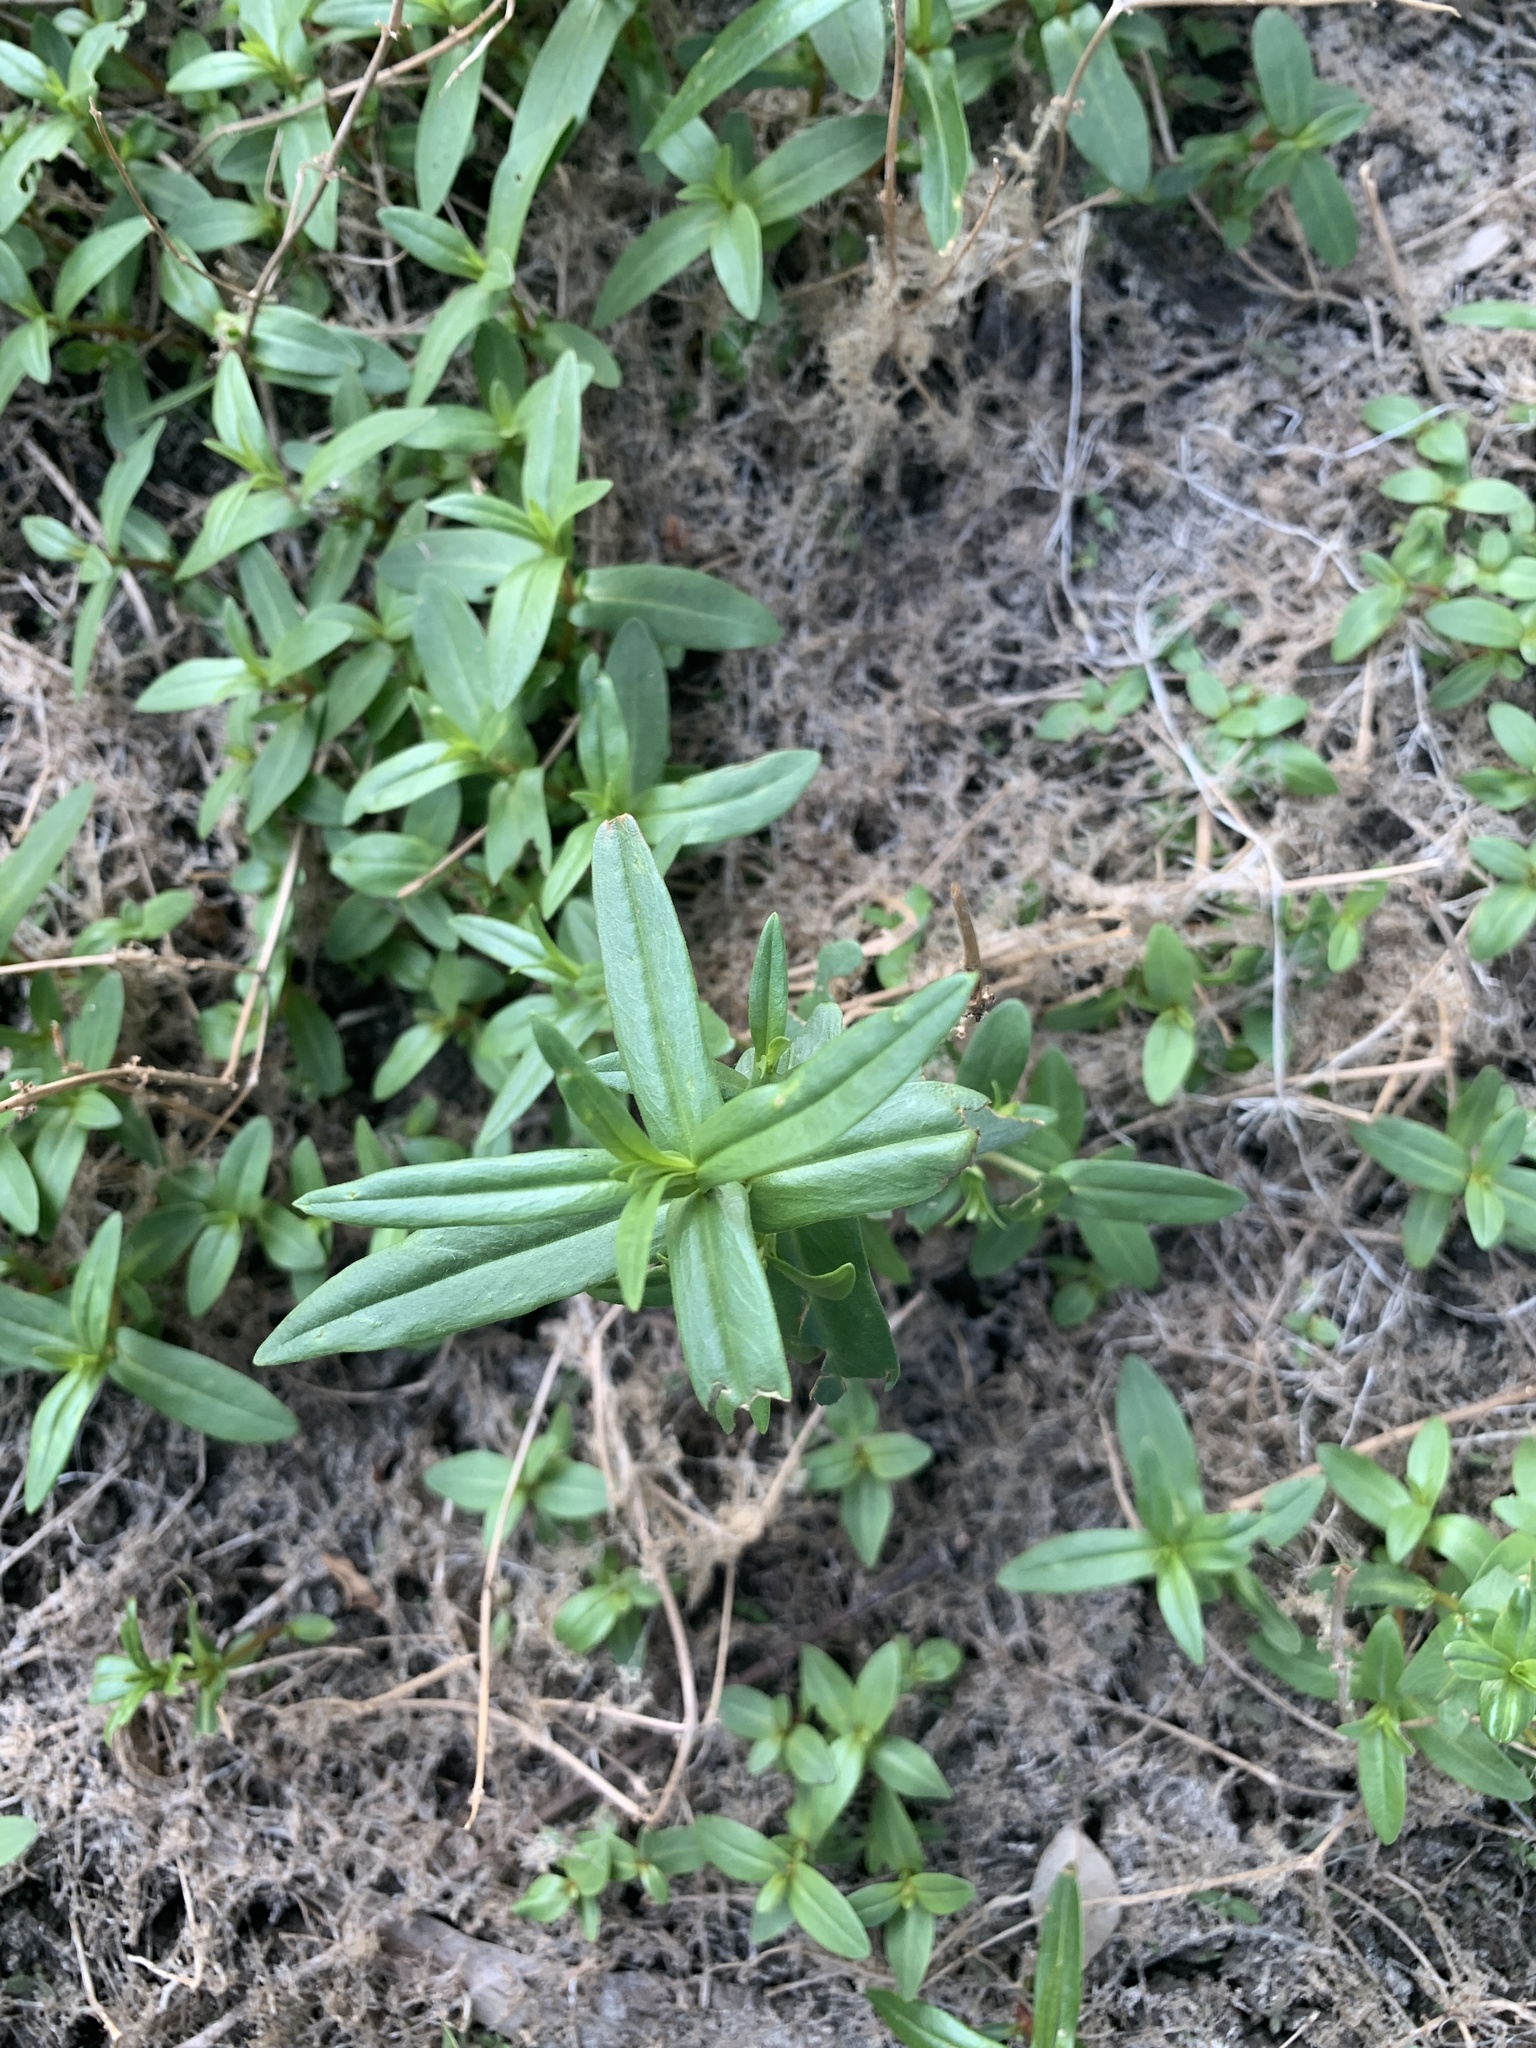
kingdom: Plantae
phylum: Tracheophyta
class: Magnoliopsida
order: Myrtales
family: Lythraceae
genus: Ammannia
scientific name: Ammannia coccinea
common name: Valley redstem
